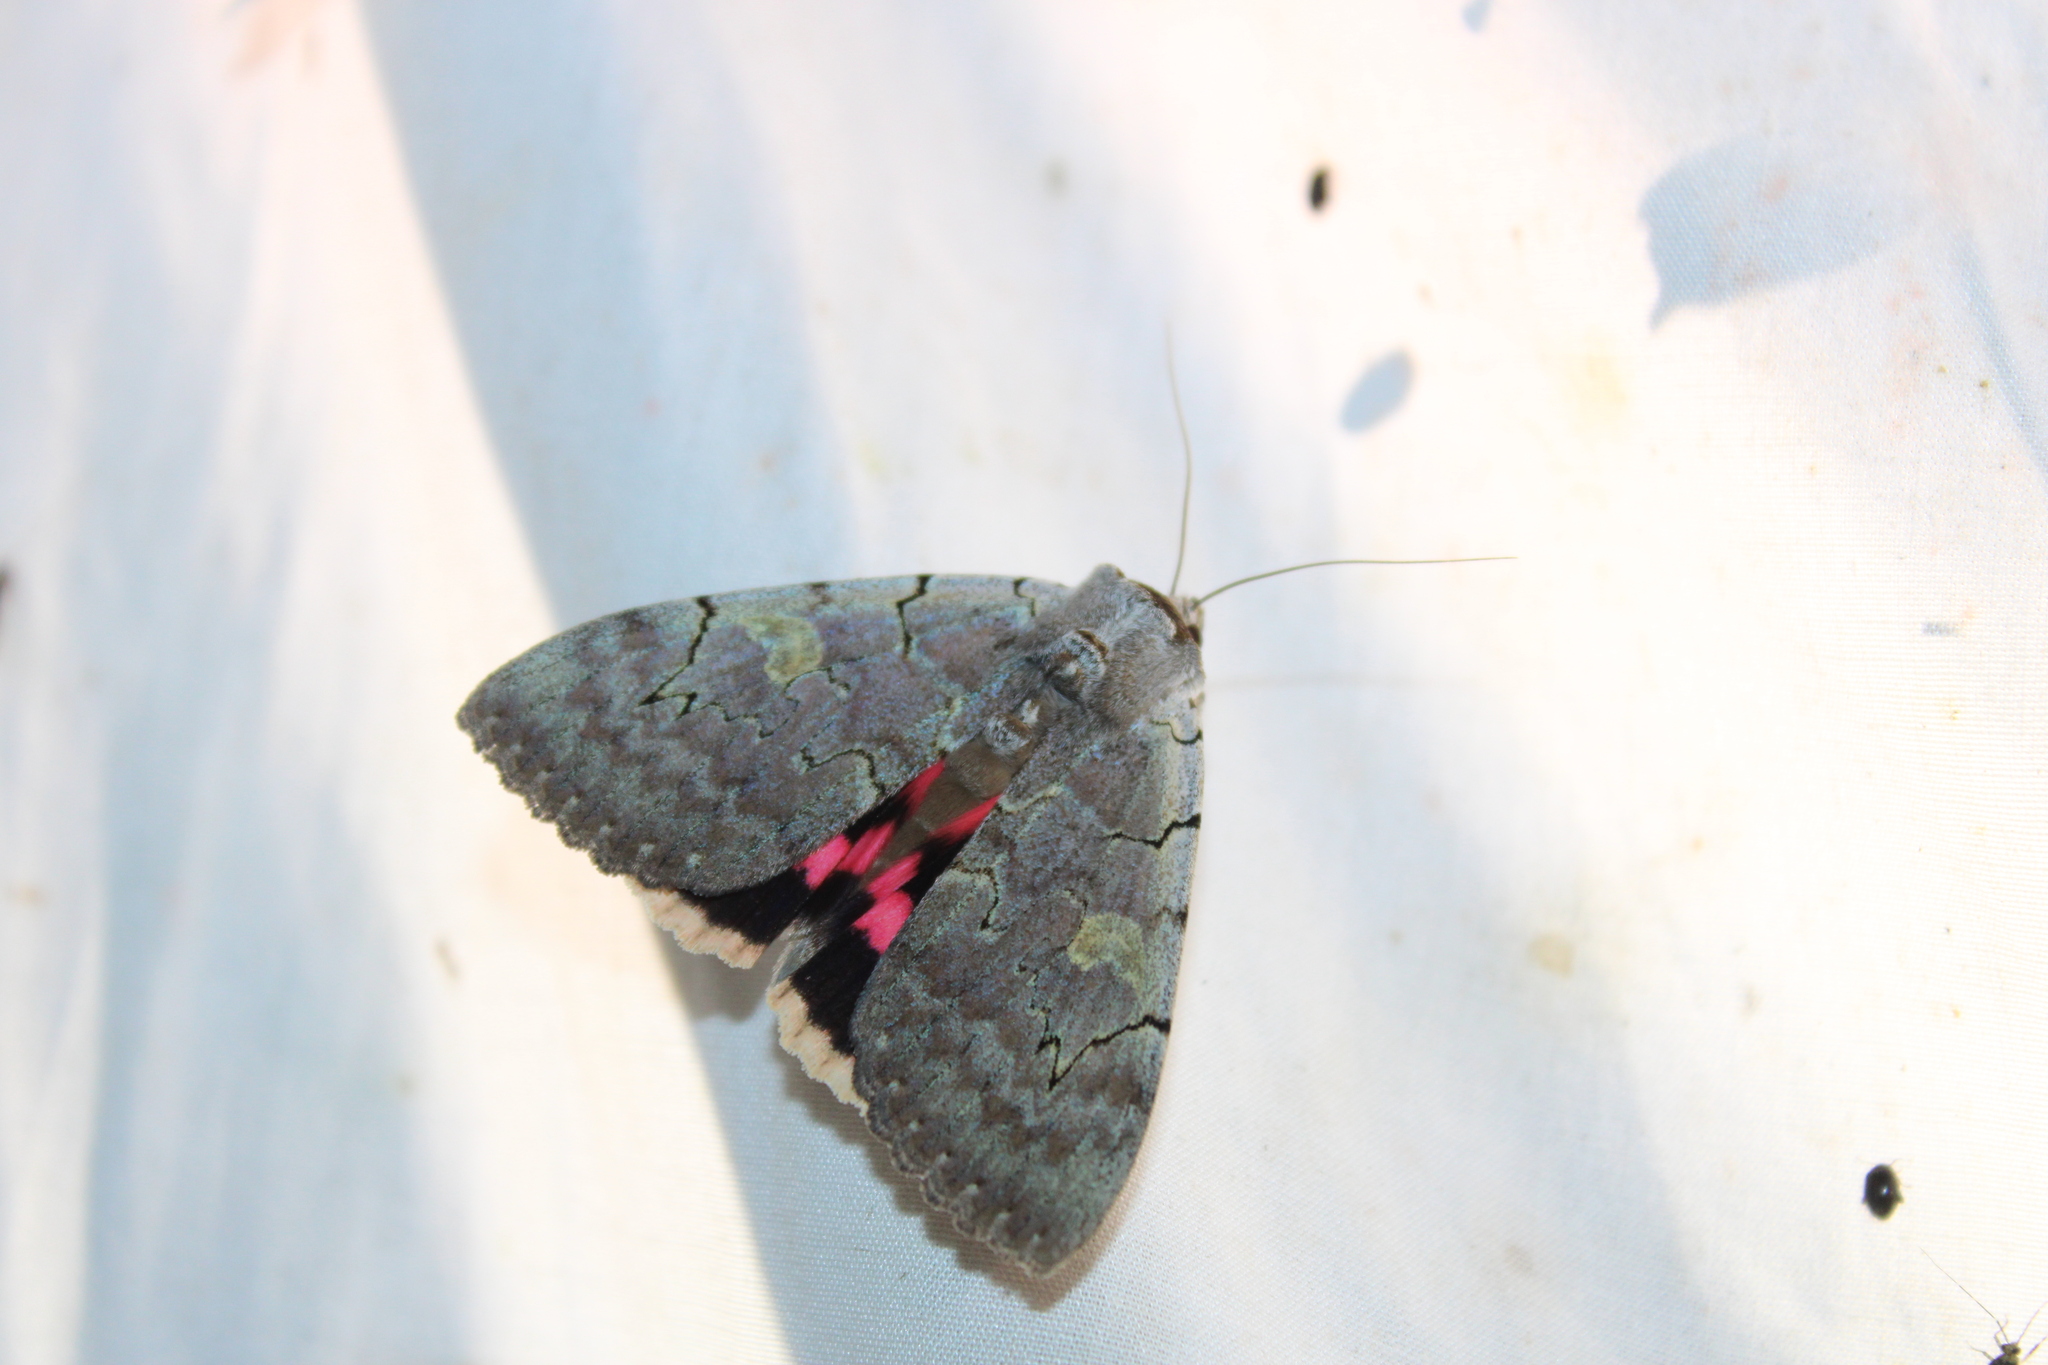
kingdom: Animalia
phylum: Arthropoda
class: Insecta
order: Lepidoptera
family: Erebidae
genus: Catocala
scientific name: Catocala concumbens
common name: Pink underwing
